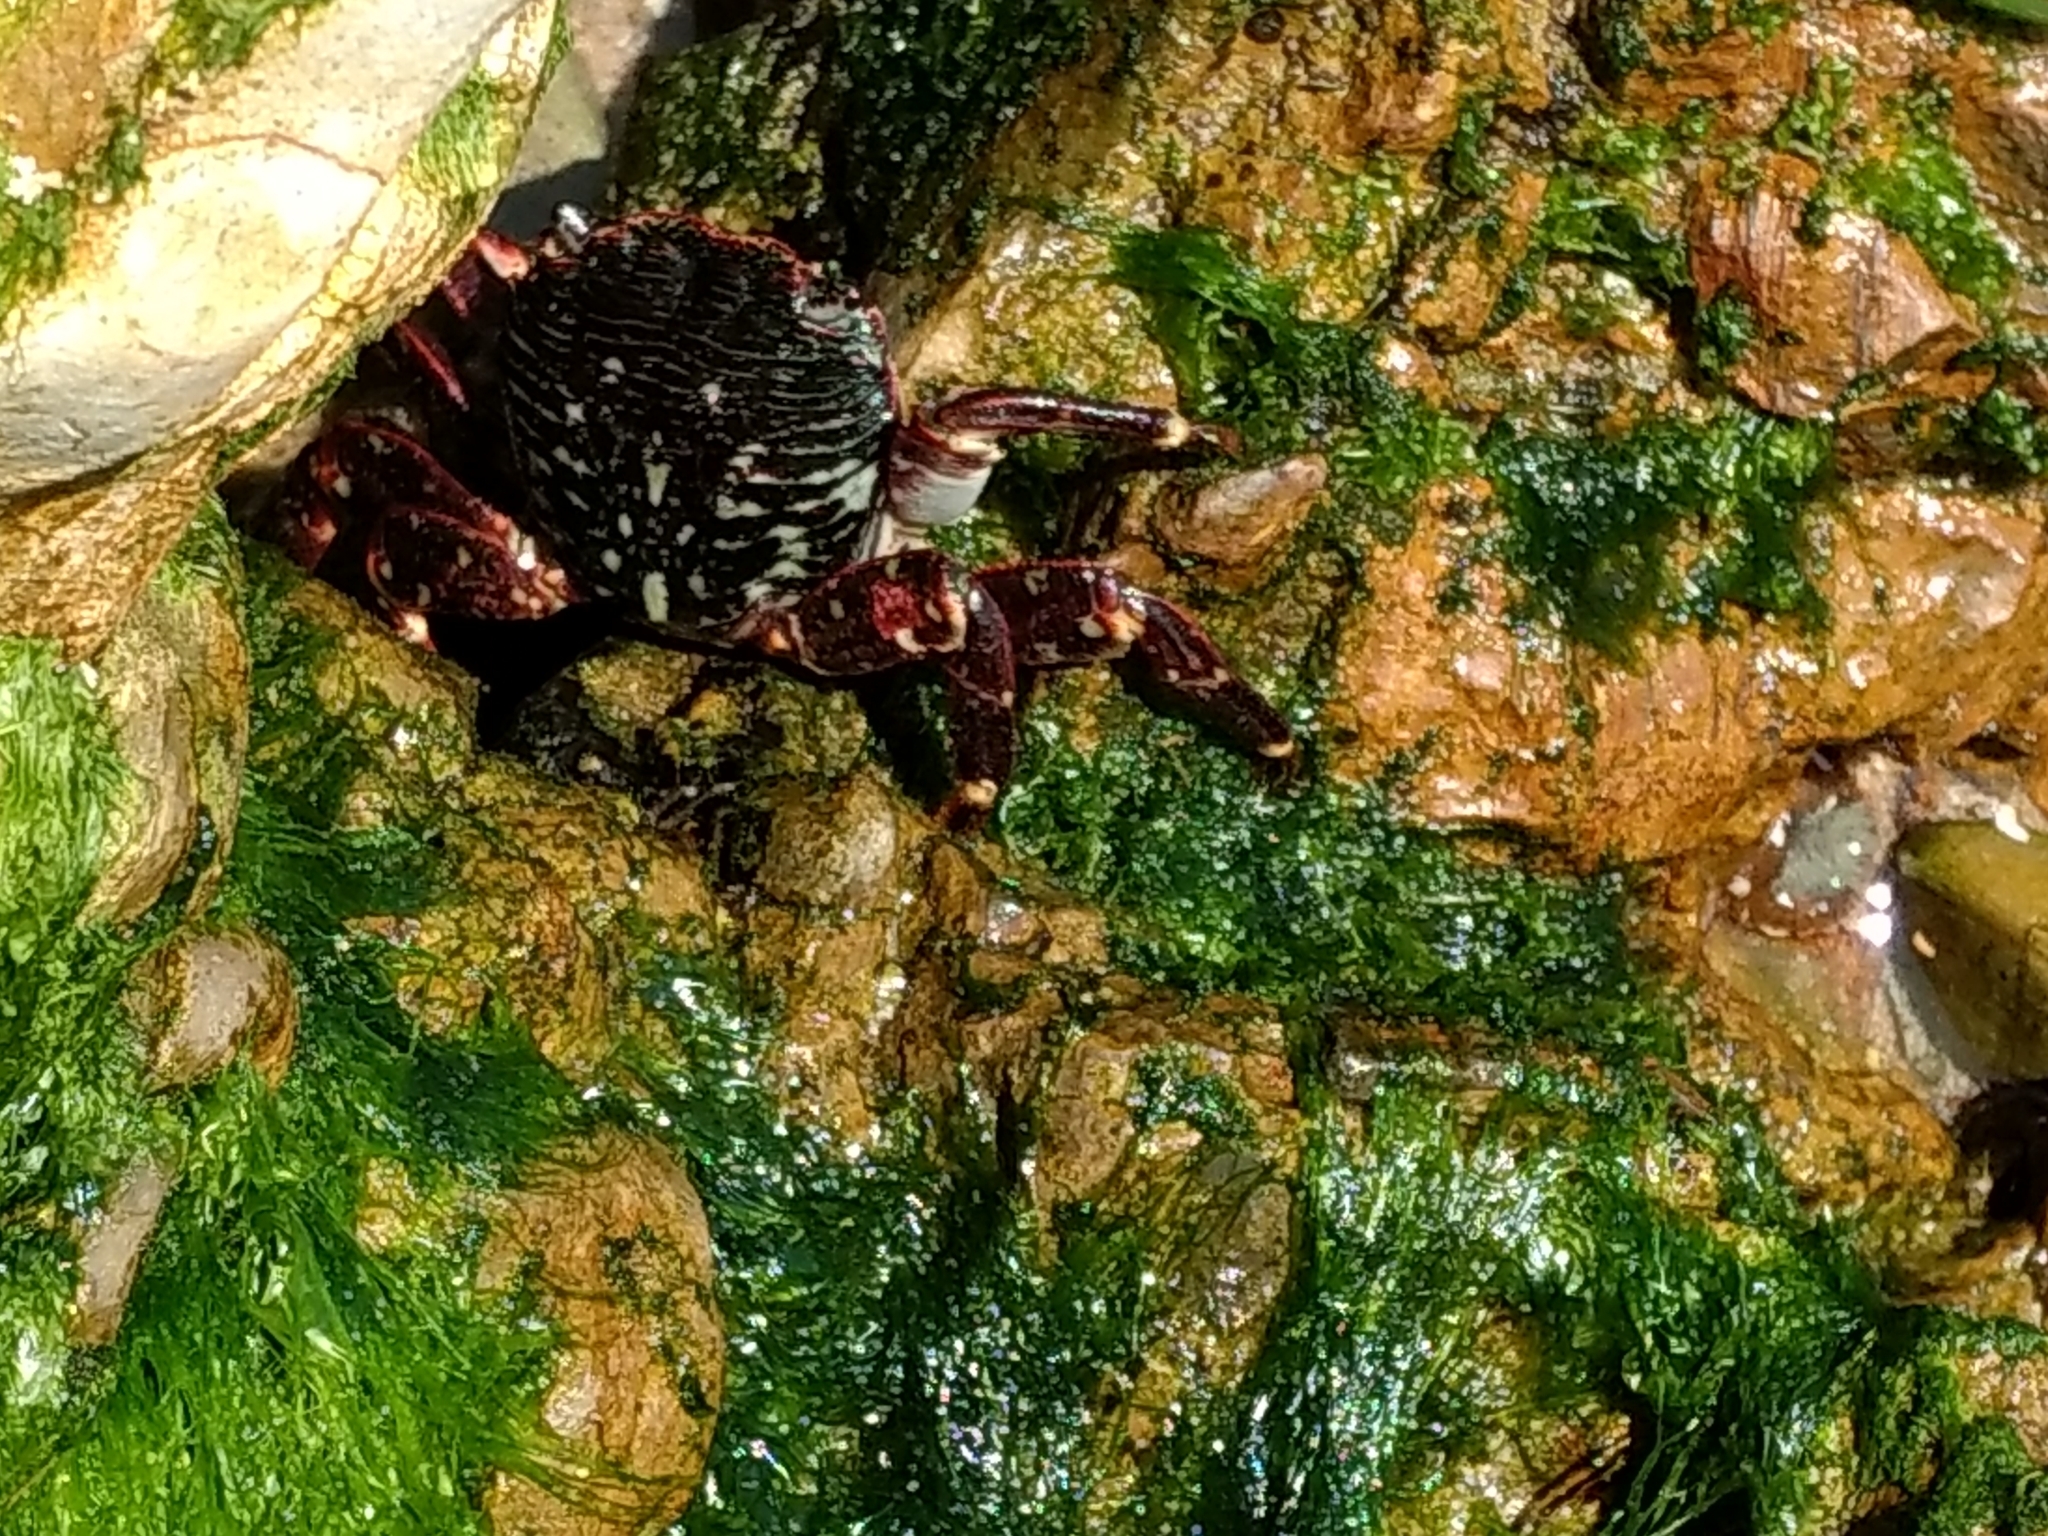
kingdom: Animalia
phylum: Arthropoda
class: Malacostraca
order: Decapoda
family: Grapsidae
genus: Pachygrapsus
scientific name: Pachygrapsus crassipes
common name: Striped shore crab
